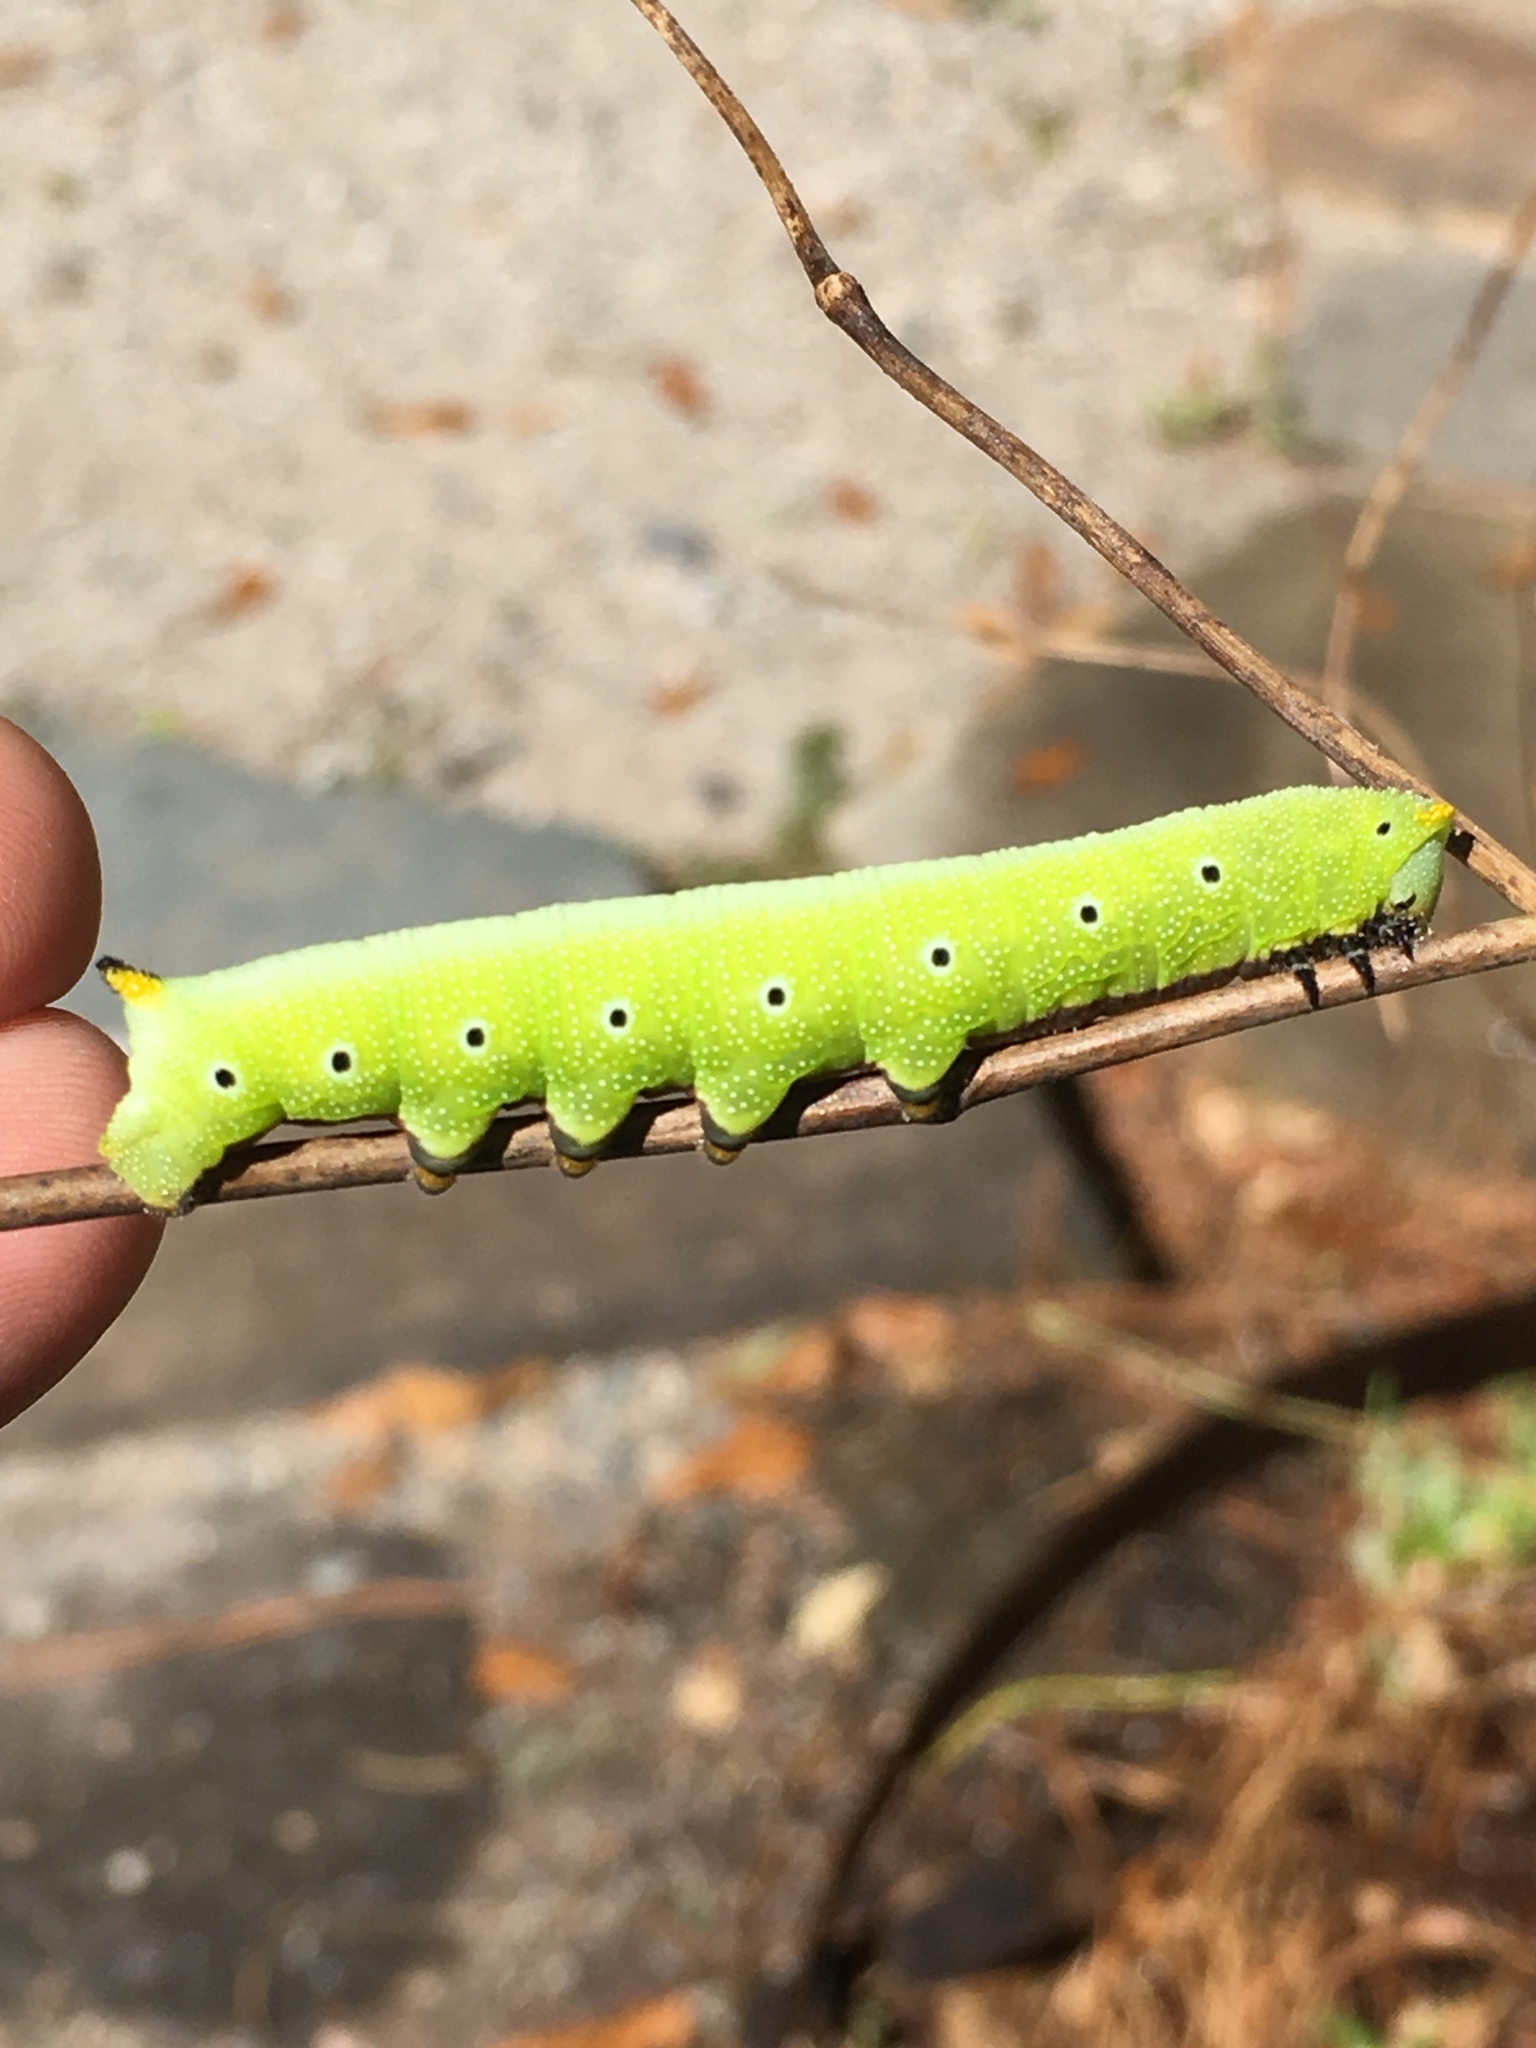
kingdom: Animalia
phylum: Arthropoda
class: Insecta
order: Lepidoptera
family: Sphingidae
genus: Hemaris
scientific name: Hemaris diffinis
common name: Bumblebee moth
